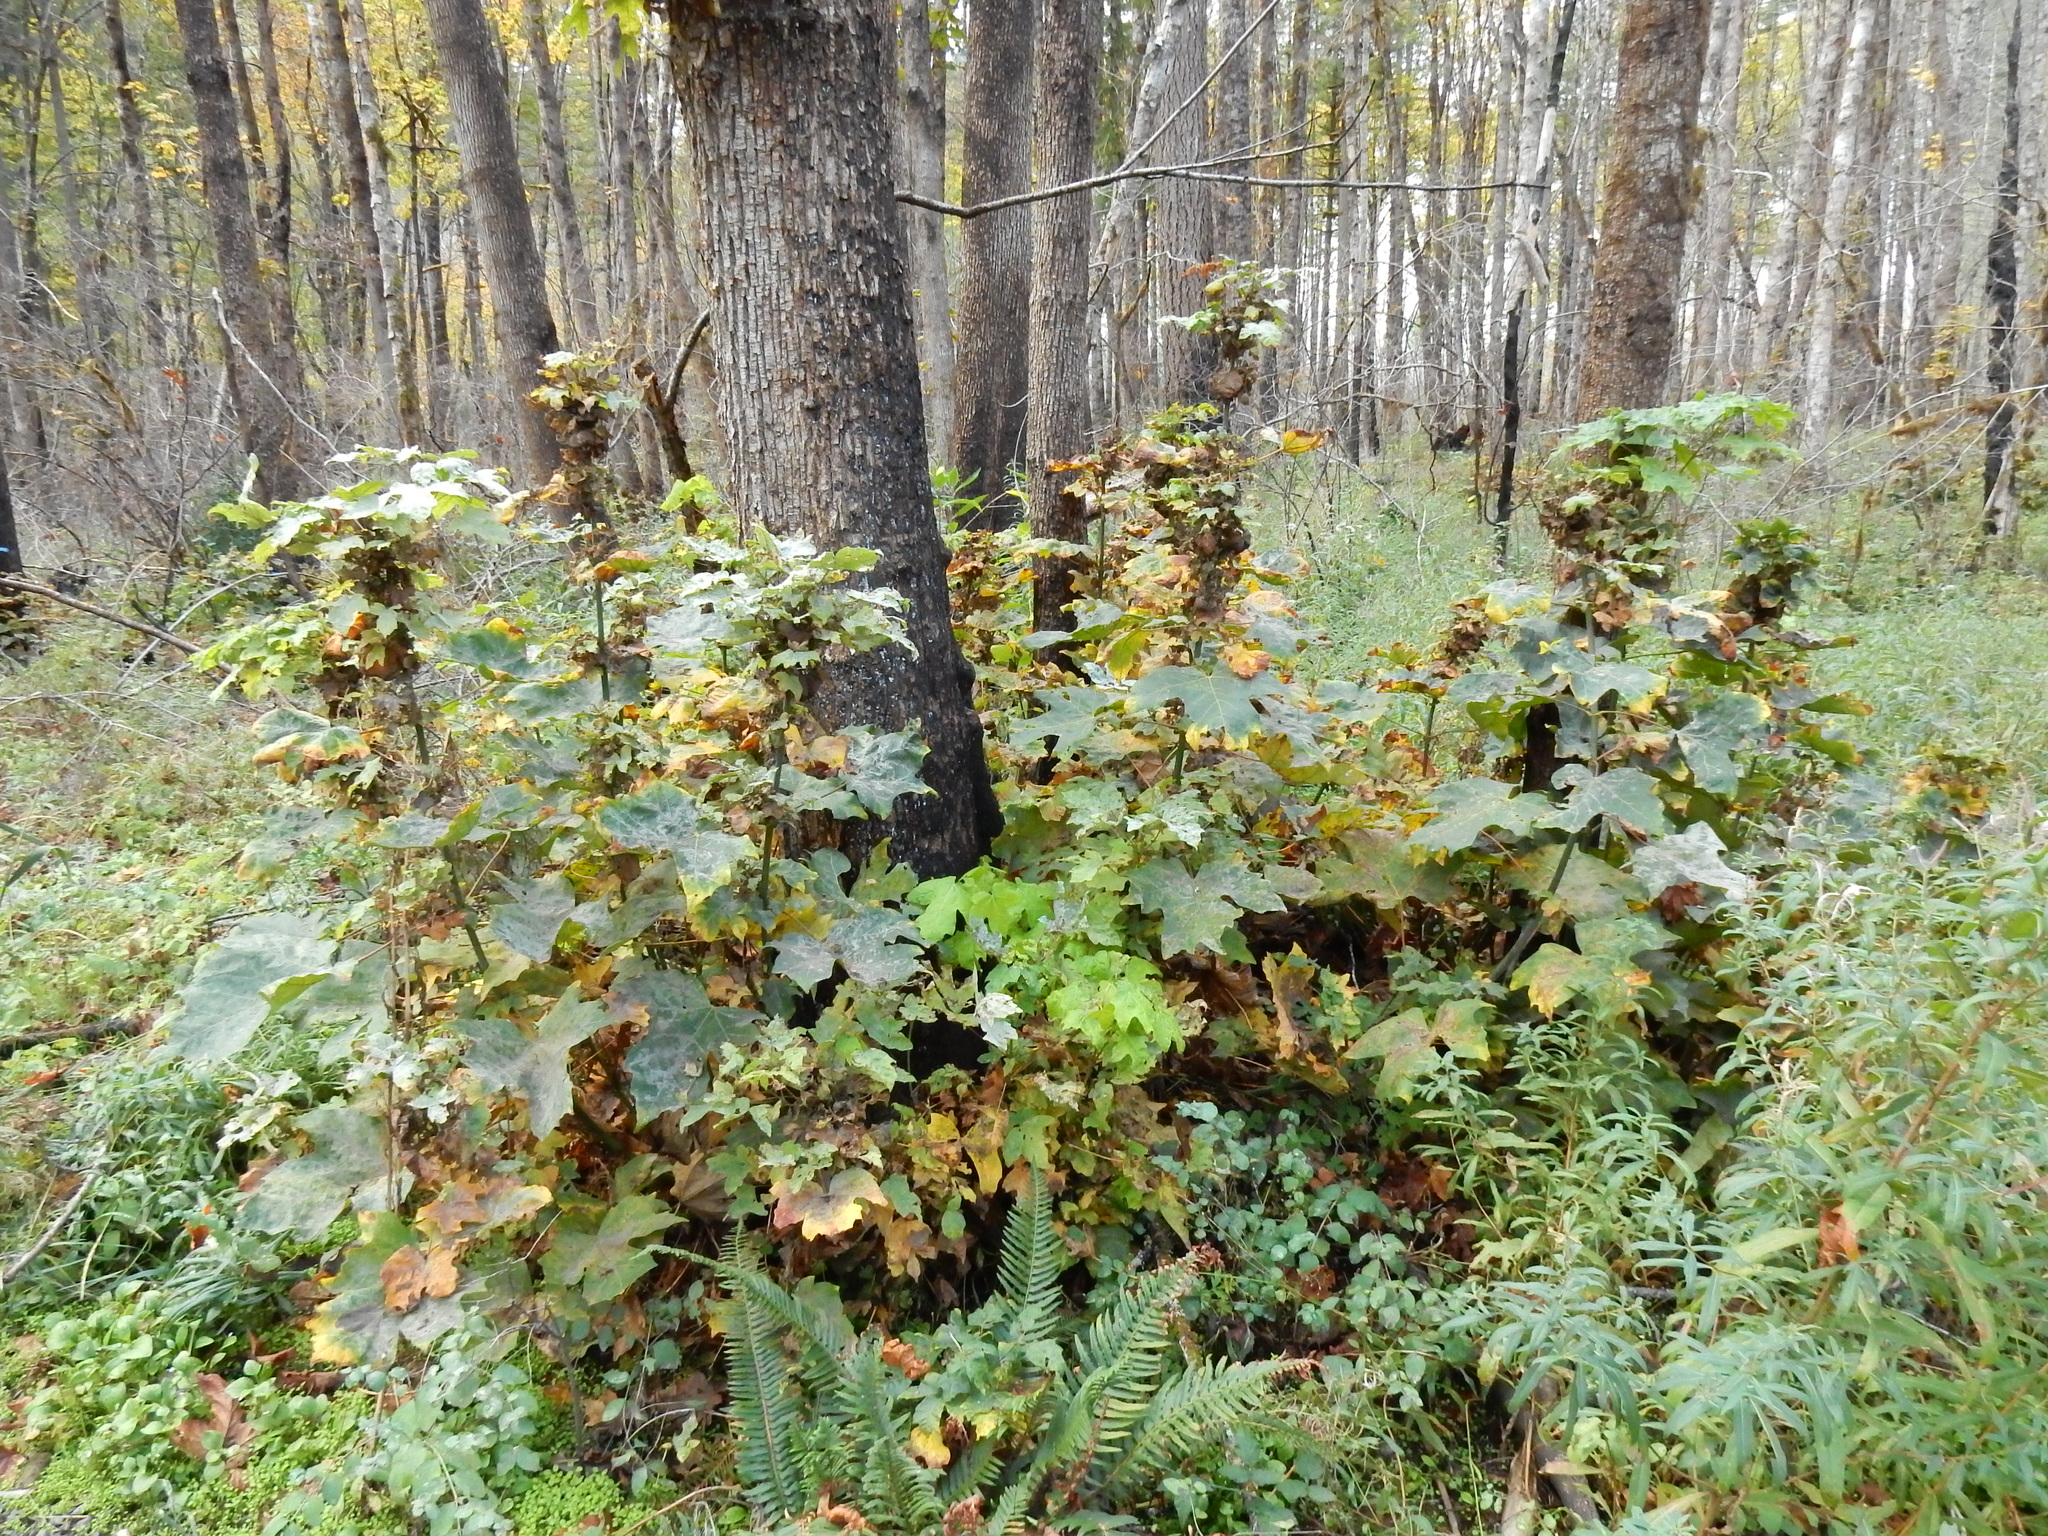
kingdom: Plantae
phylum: Tracheophyta
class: Magnoliopsida
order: Sapindales
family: Sapindaceae
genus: Acer
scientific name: Acer macrophyllum
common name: Oregon maple
